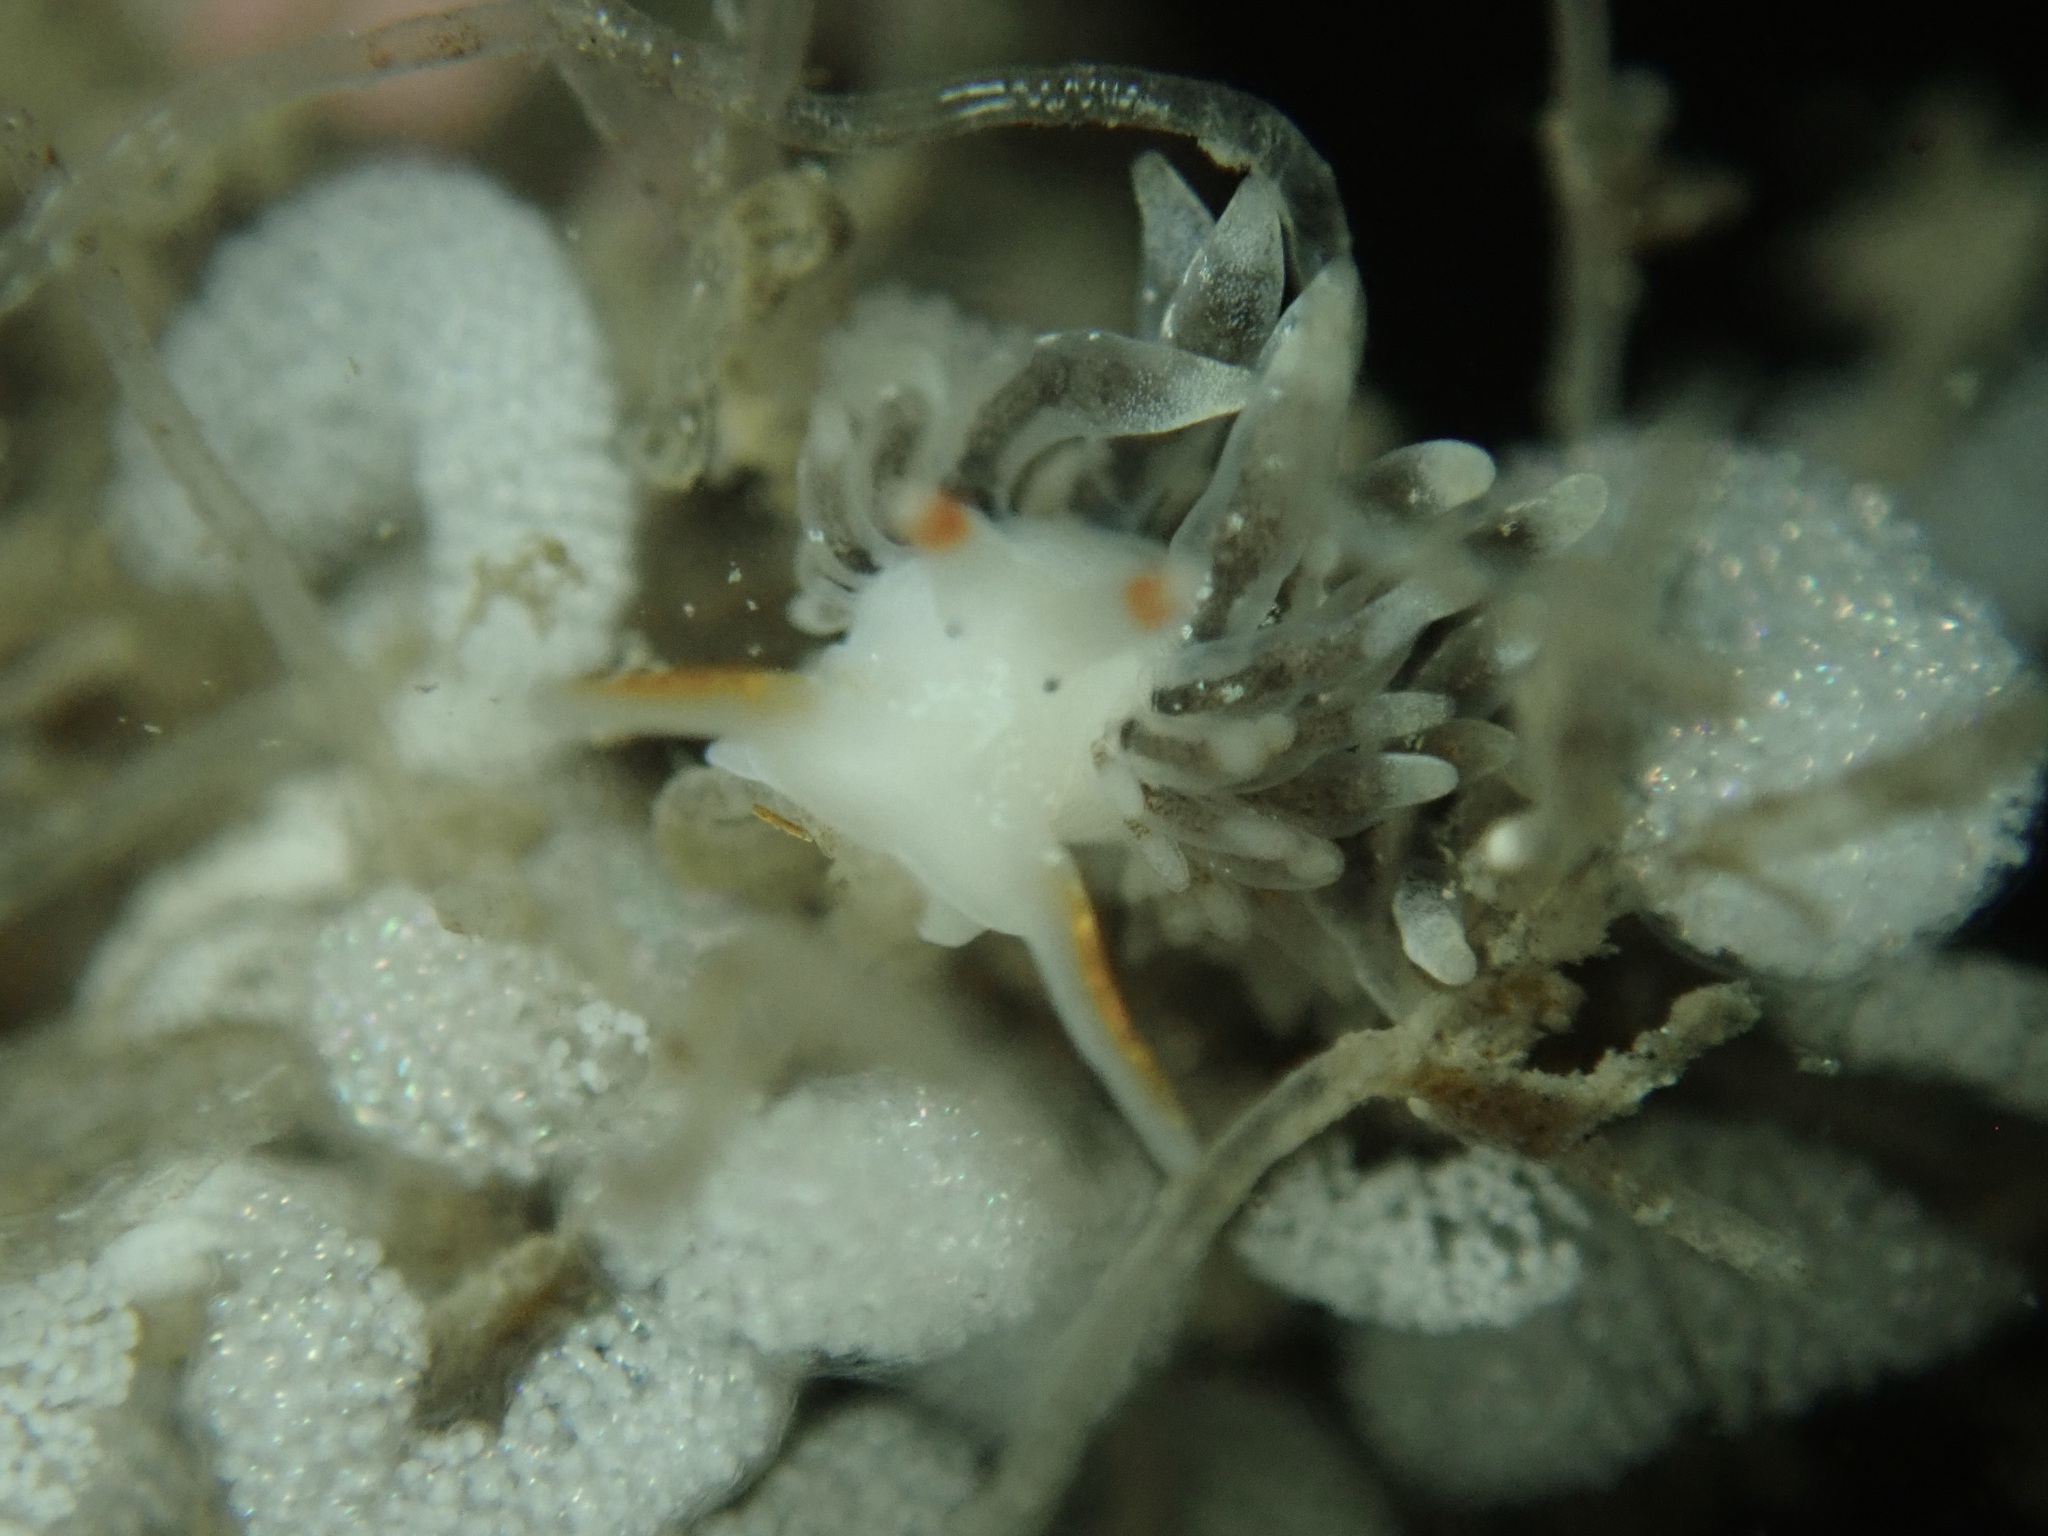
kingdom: Animalia
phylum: Mollusca
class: Gastropoda
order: Nudibranchia
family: Trinchesiidae
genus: Catriona
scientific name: Catriona spadix
